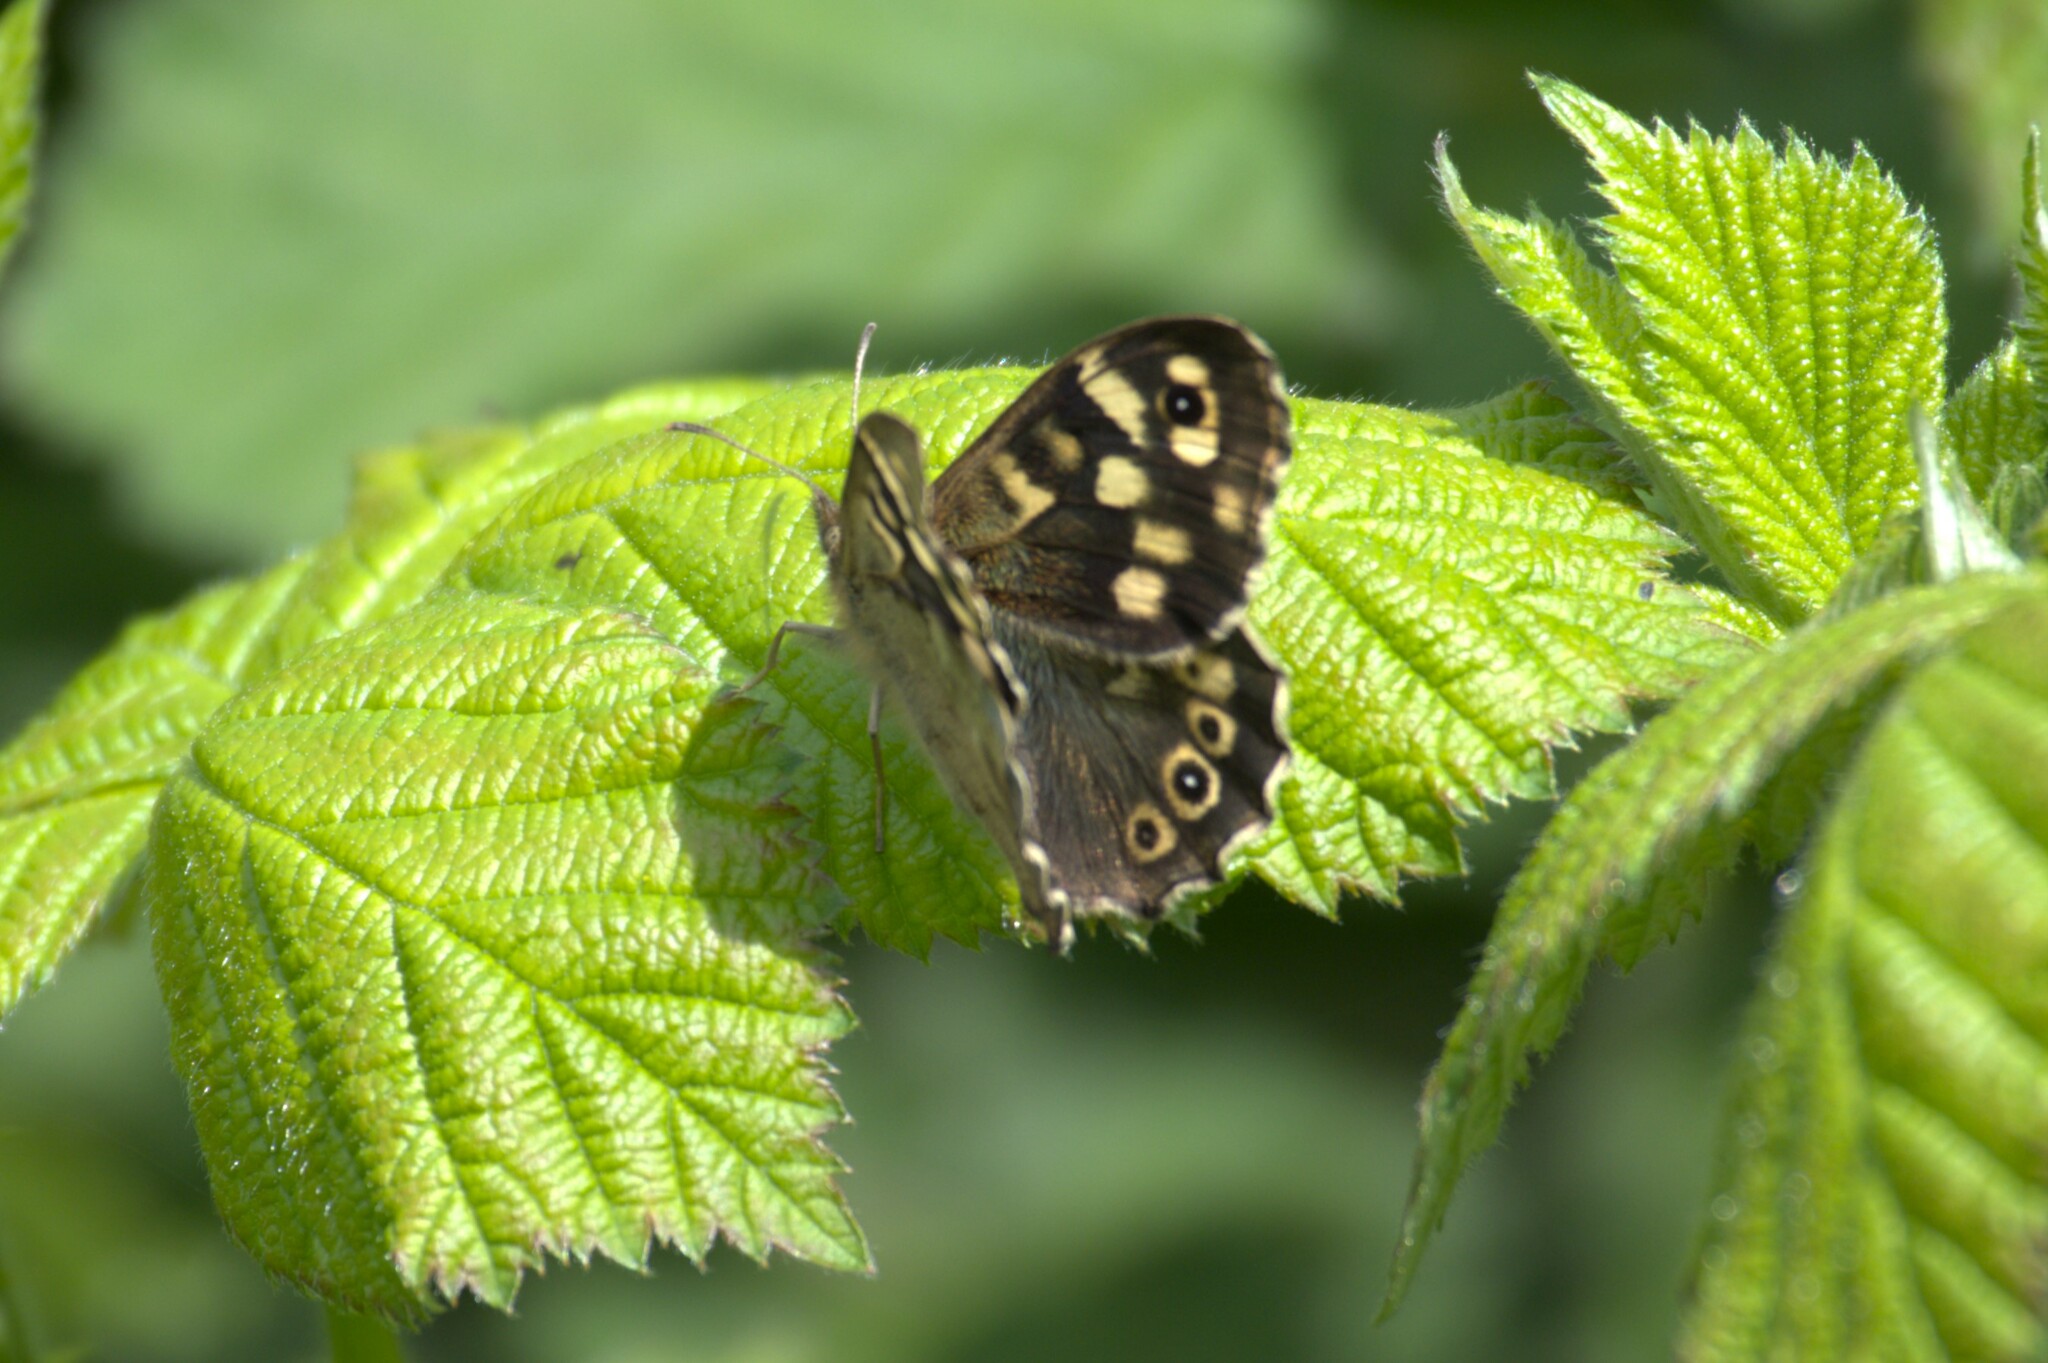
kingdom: Animalia
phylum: Arthropoda
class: Insecta
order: Lepidoptera
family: Nymphalidae
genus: Pararge
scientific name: Pararge aegeria
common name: Speckled wood
